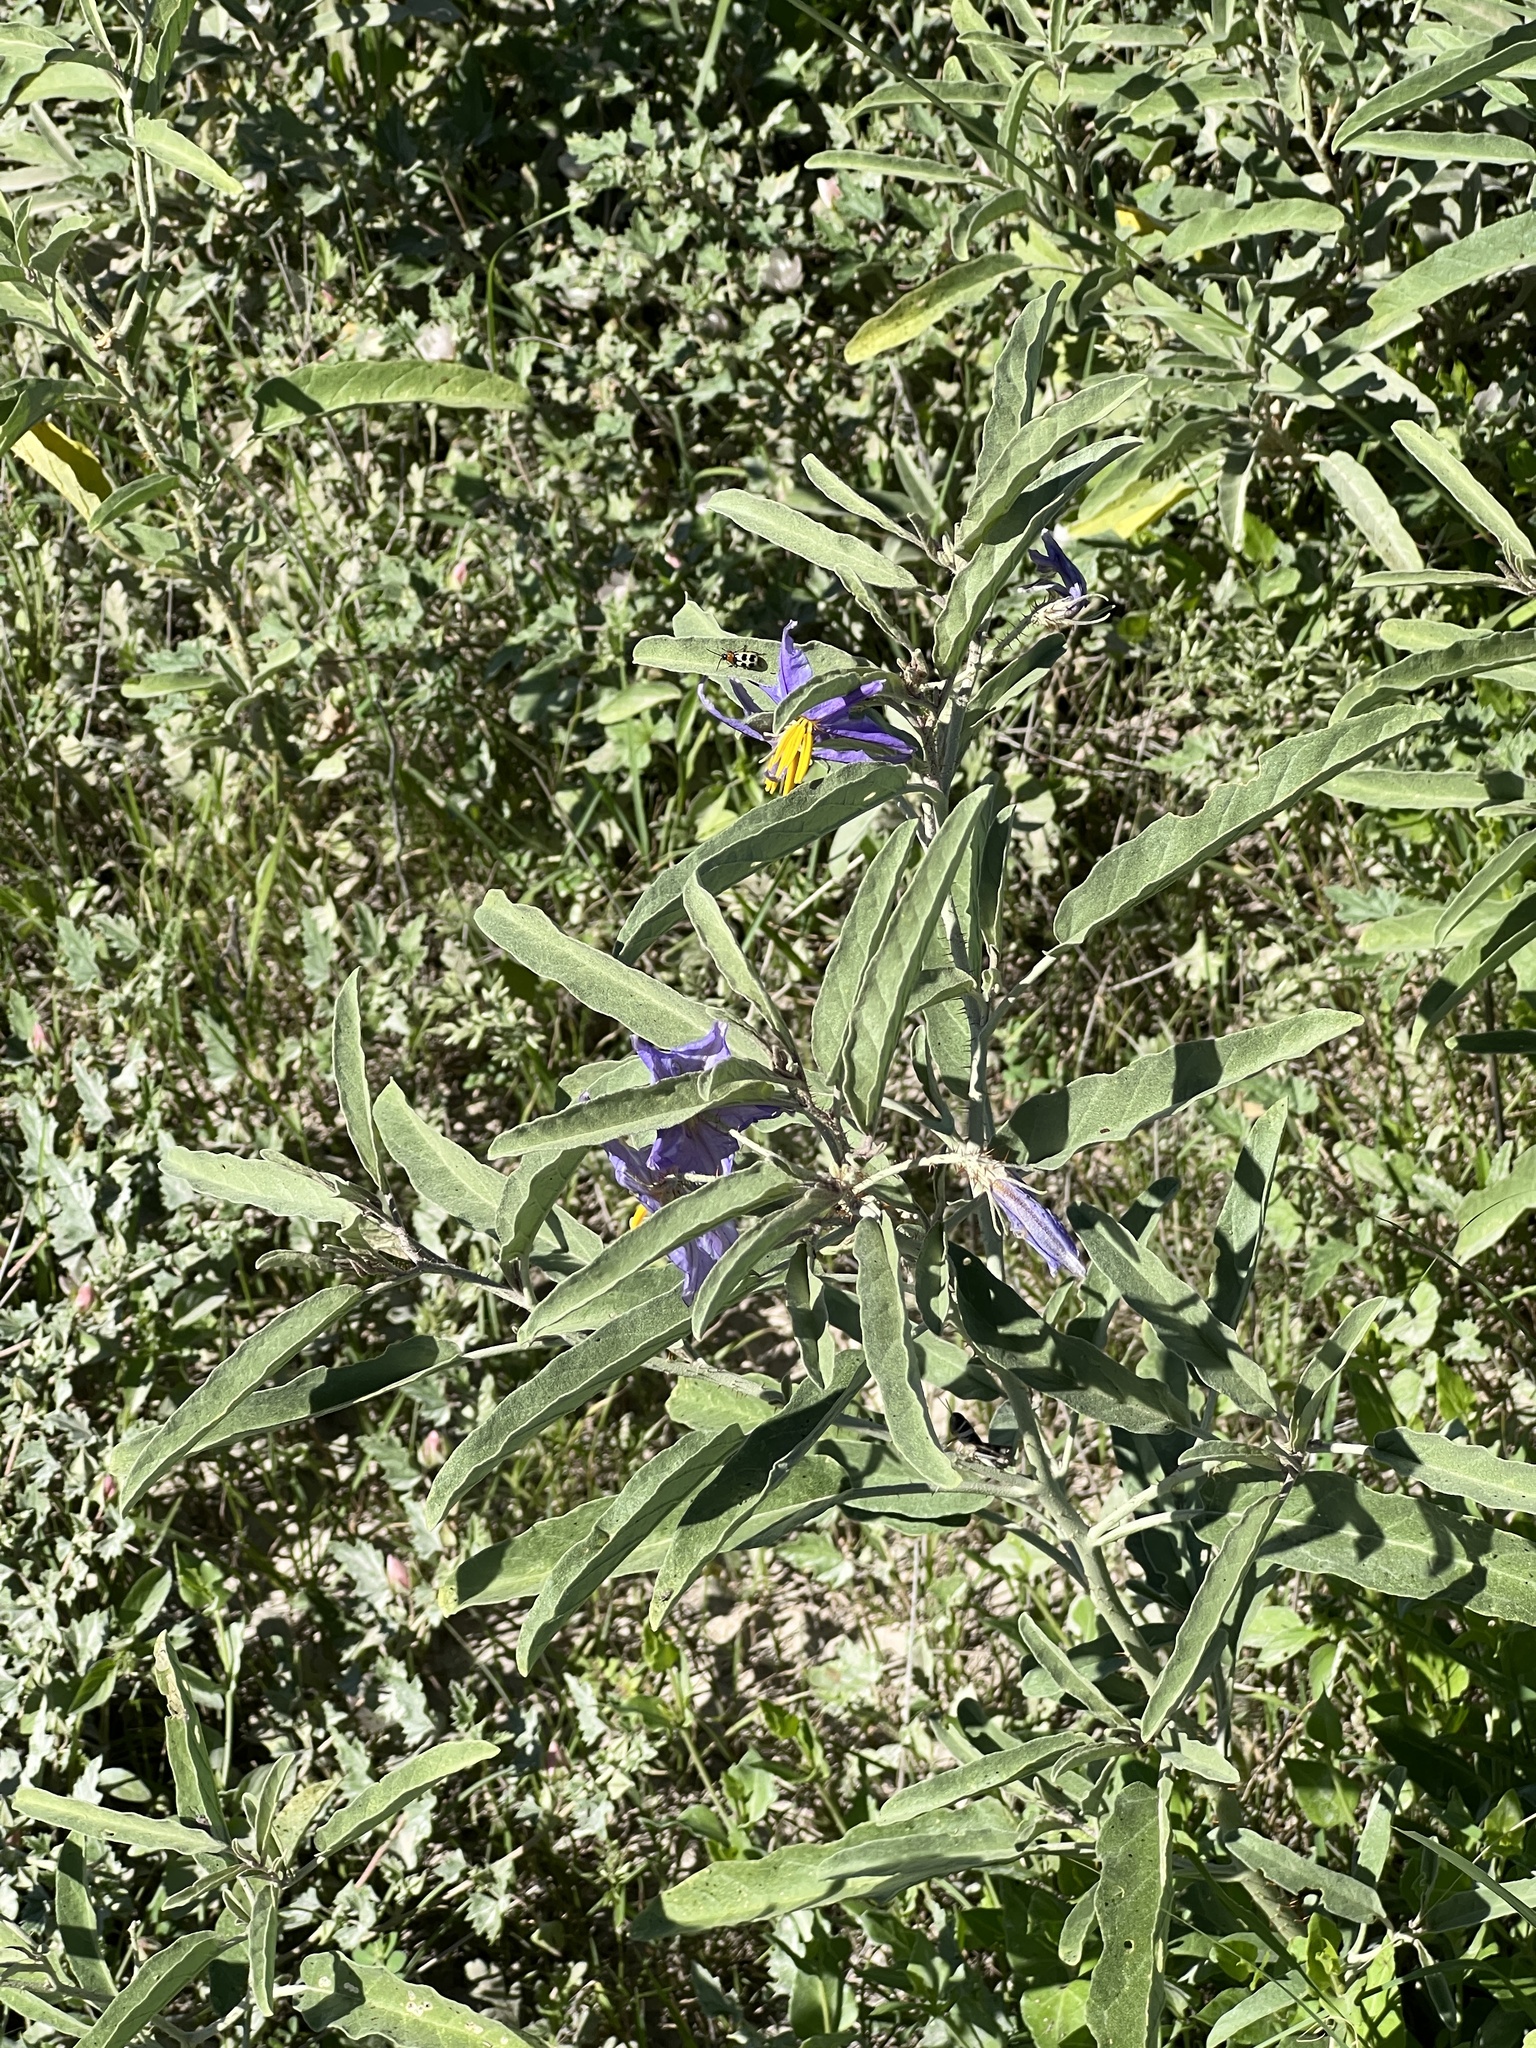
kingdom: Plantae
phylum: Tracheophyta
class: Magnoliopsida
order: Solanales
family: Solanaceae
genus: Solanum
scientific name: Solanum elaeagnifolium
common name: Silverleaf nightshade
